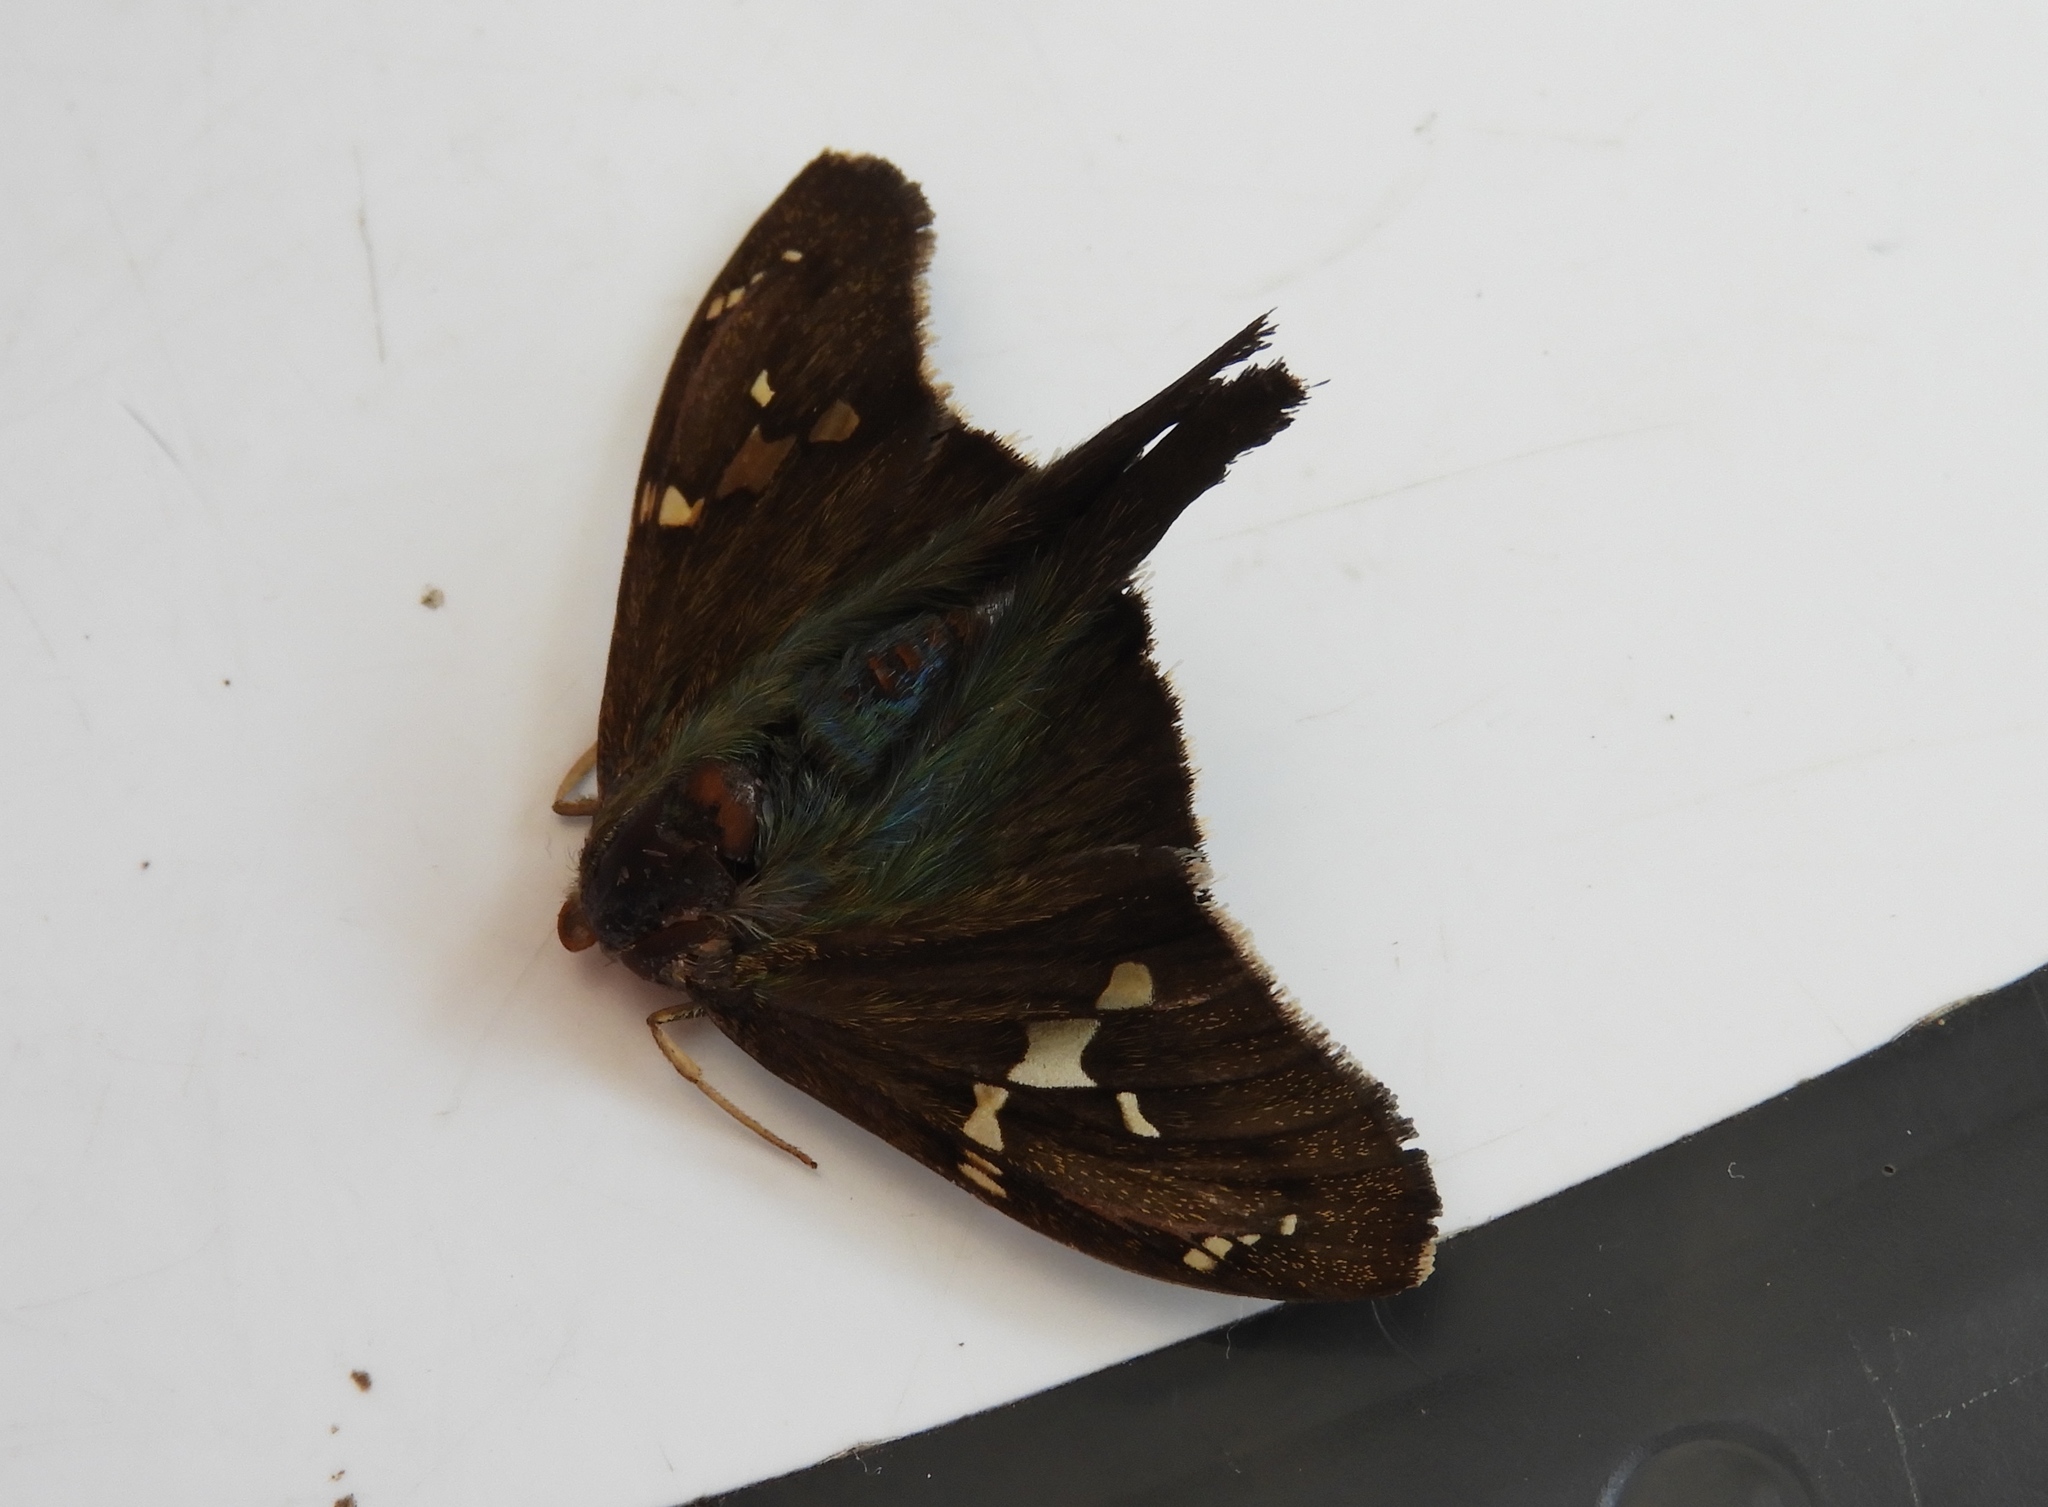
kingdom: Animalia
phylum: Arthropoda
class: Insecta
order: Lepidoptera
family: Hesperiidae
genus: Aguna
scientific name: Aguna metophis
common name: Tailed aguna
